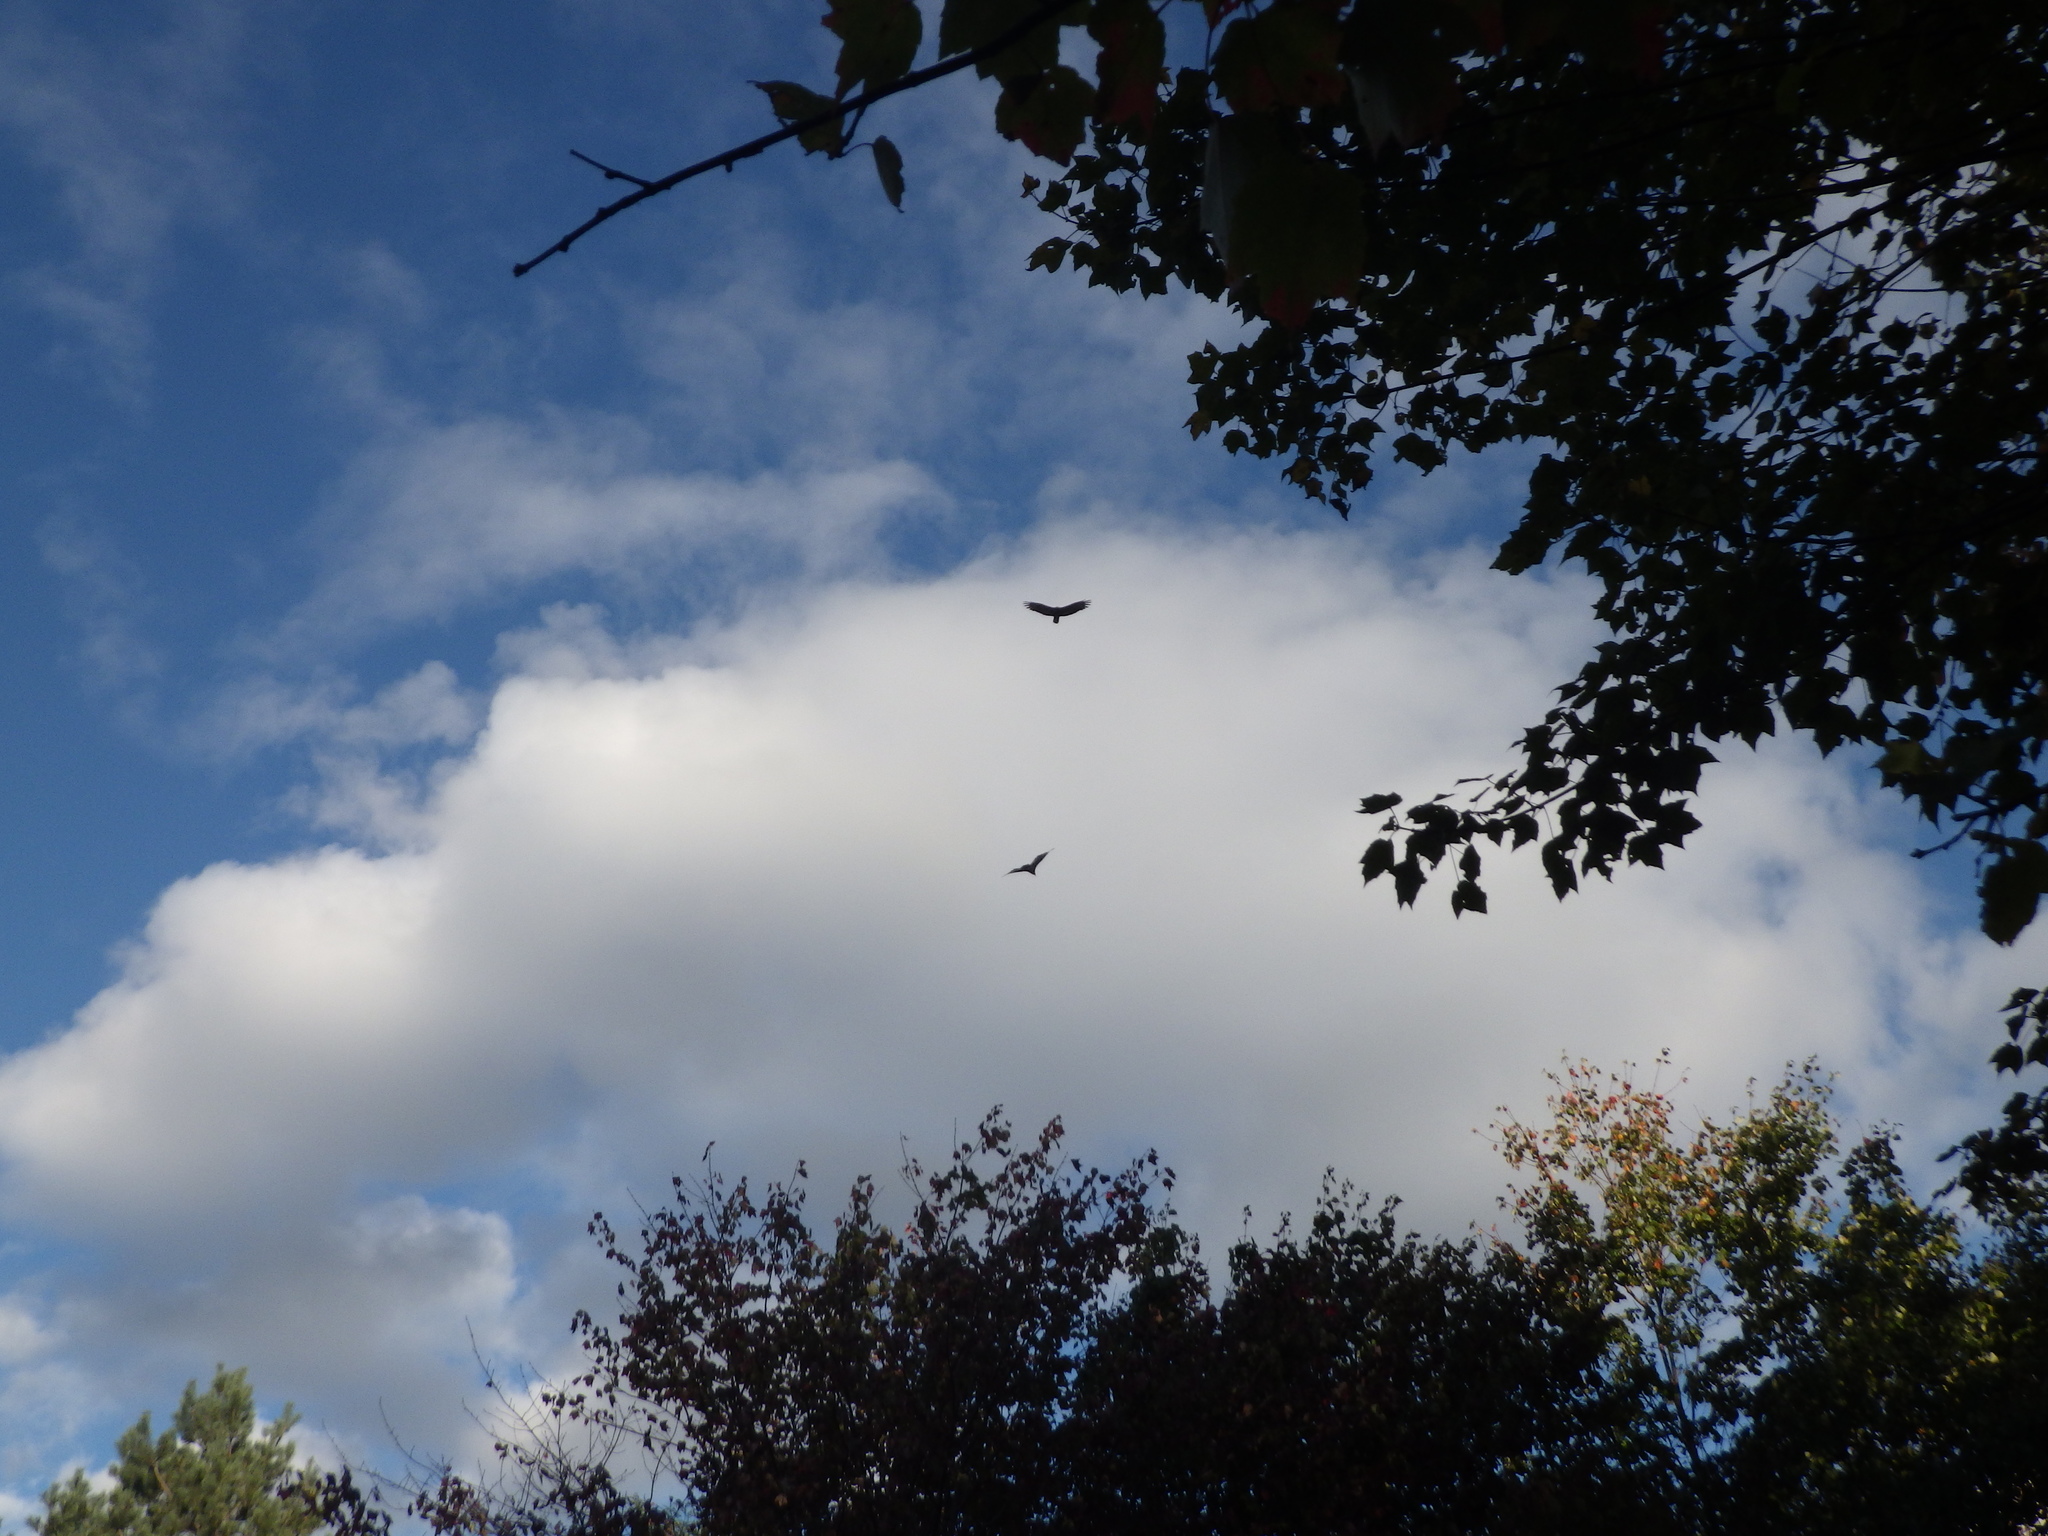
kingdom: Animalia
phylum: Chordata
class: Aves
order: Accipitriformes
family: Cathartidae
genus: Cathartes
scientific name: Cathartes aura
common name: Turkey vulture
